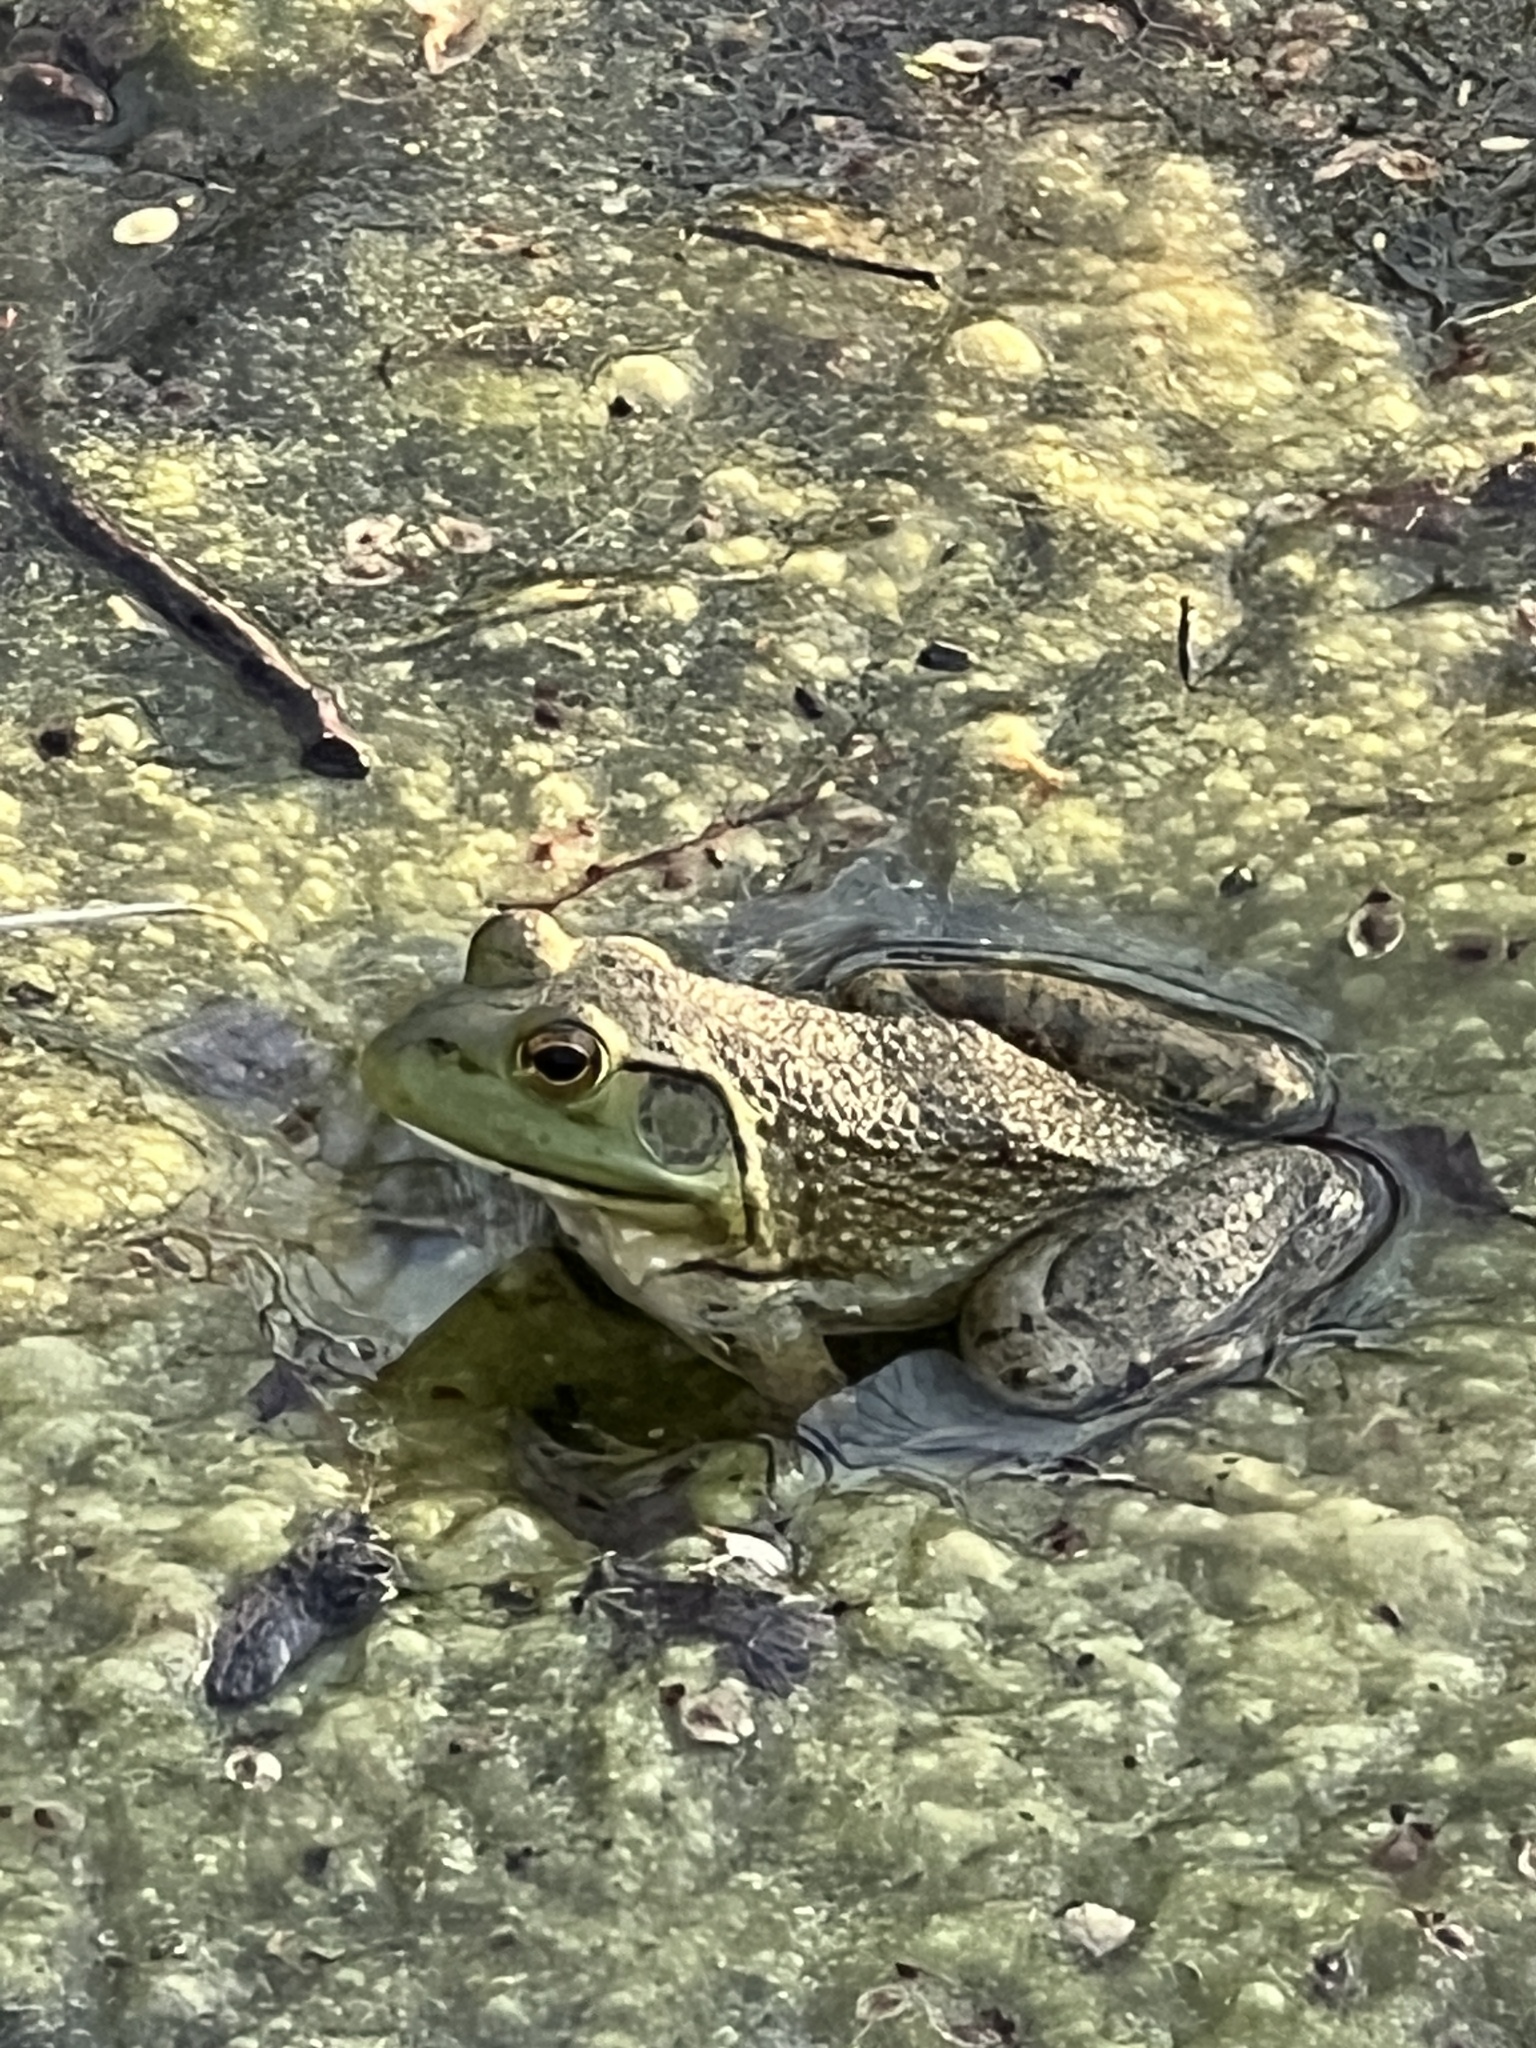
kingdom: Animalia
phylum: Chordata
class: Amphibia
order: Anura
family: Ranidae
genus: Lithobates
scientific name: Lithobates catesbeianus
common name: American bullfrog
